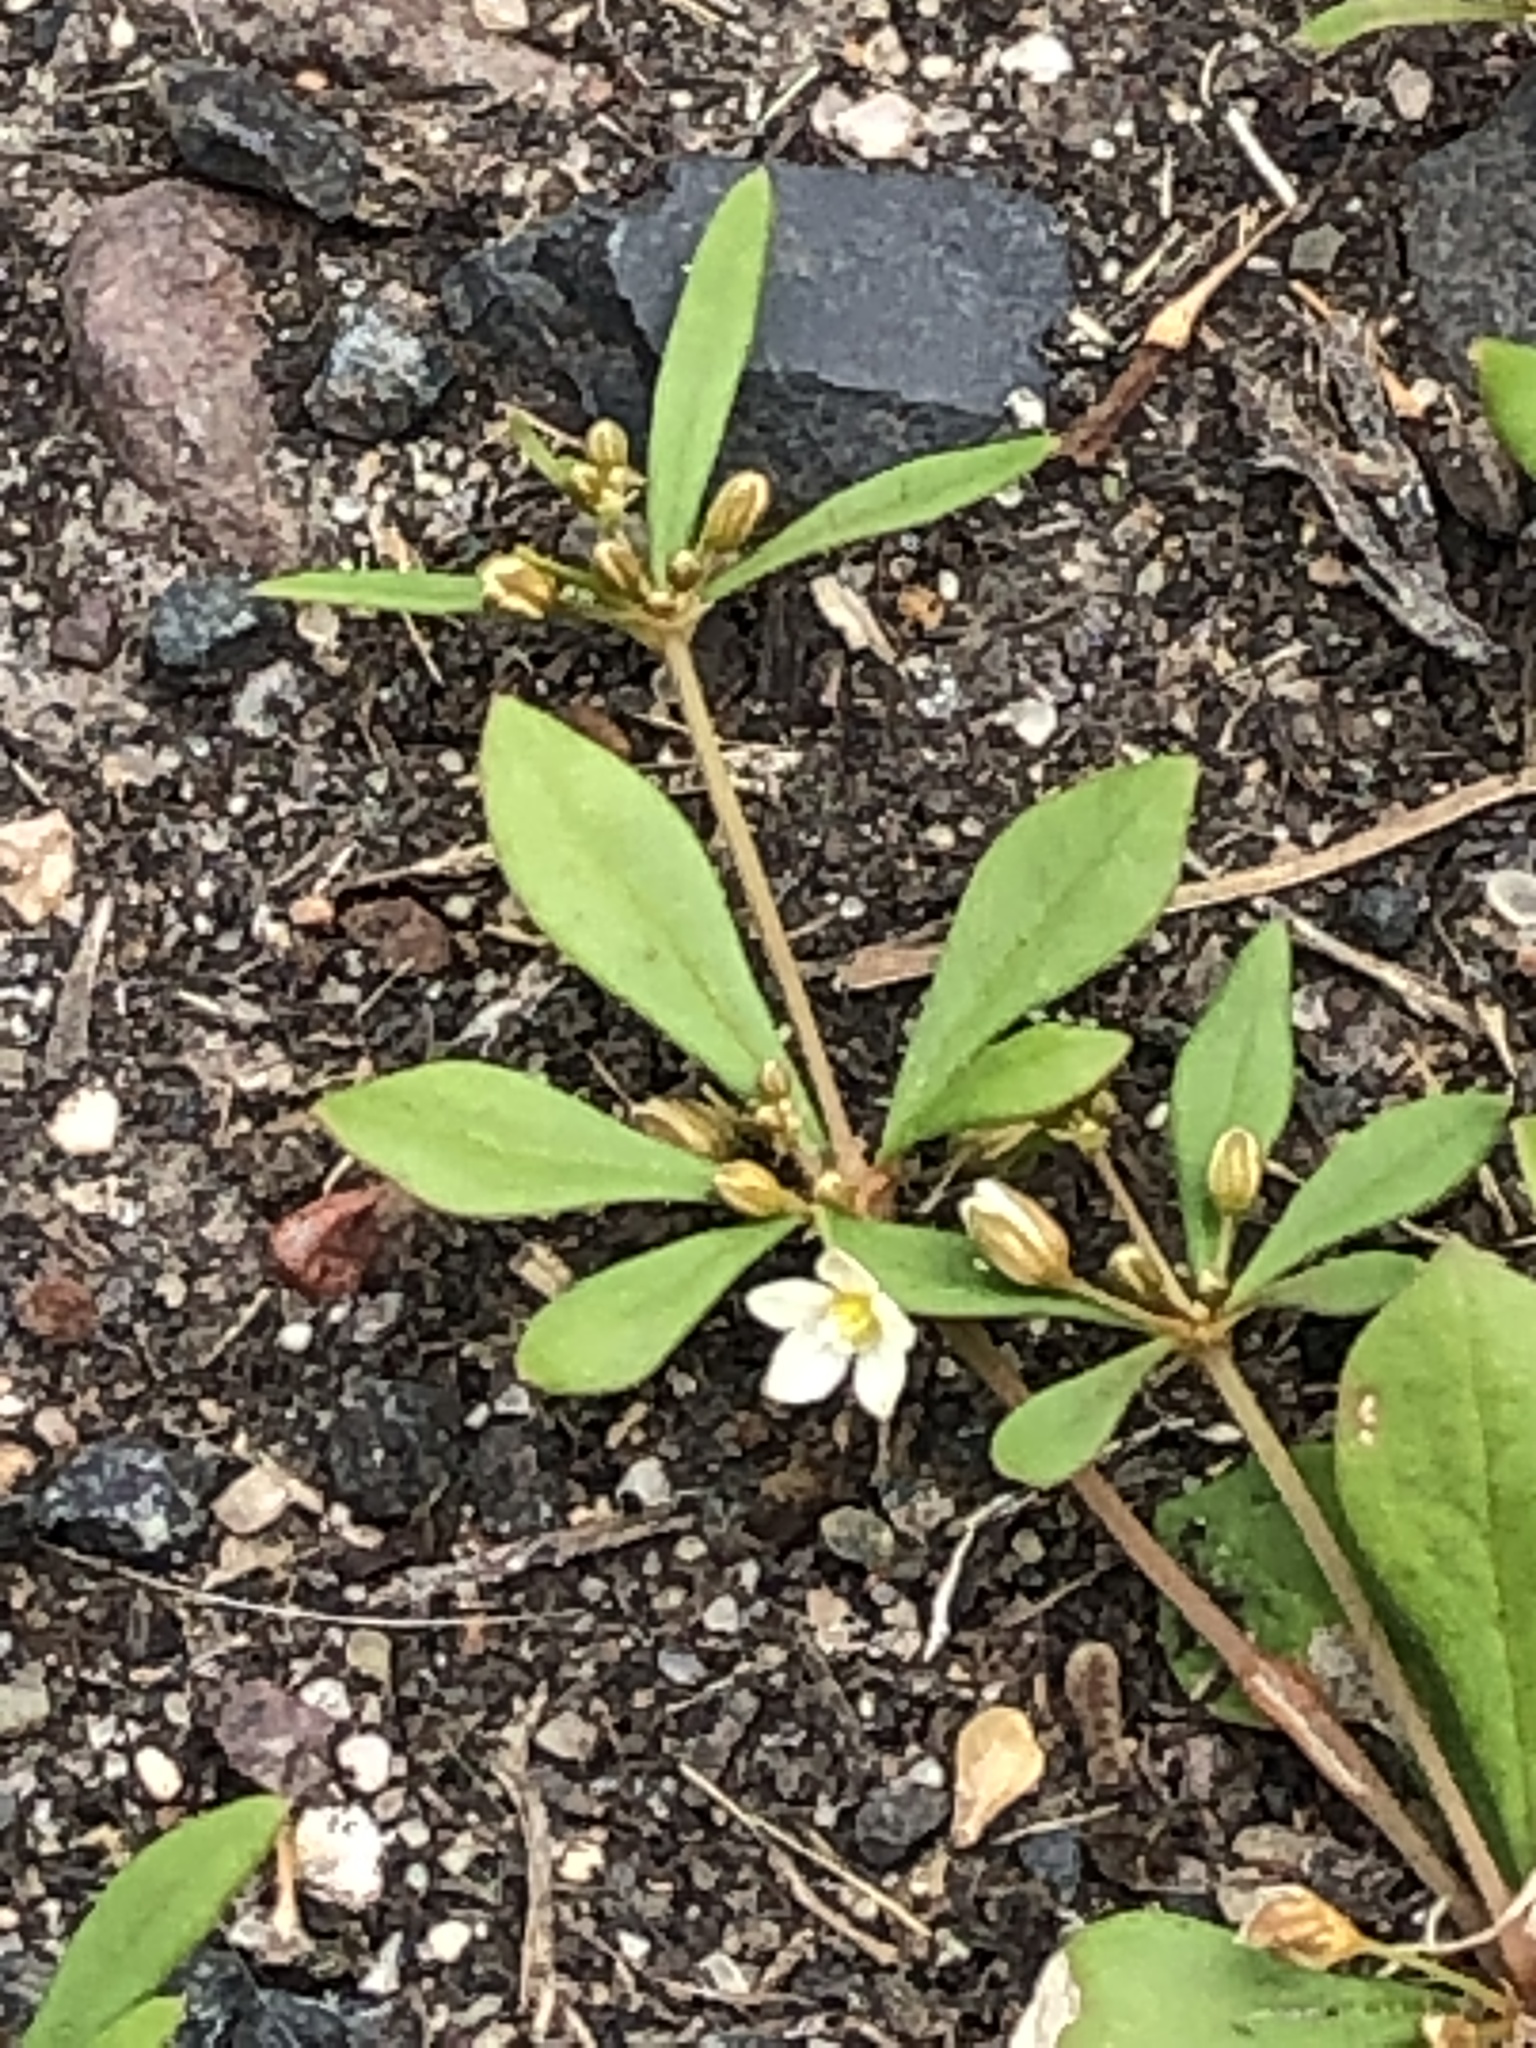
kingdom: Plantae
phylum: Tracheophyta
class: Magnoliopsida
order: Caryophyllales
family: Molluginaceae
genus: Mollugo
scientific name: Mollugo verticillata
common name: Green carpetweed
